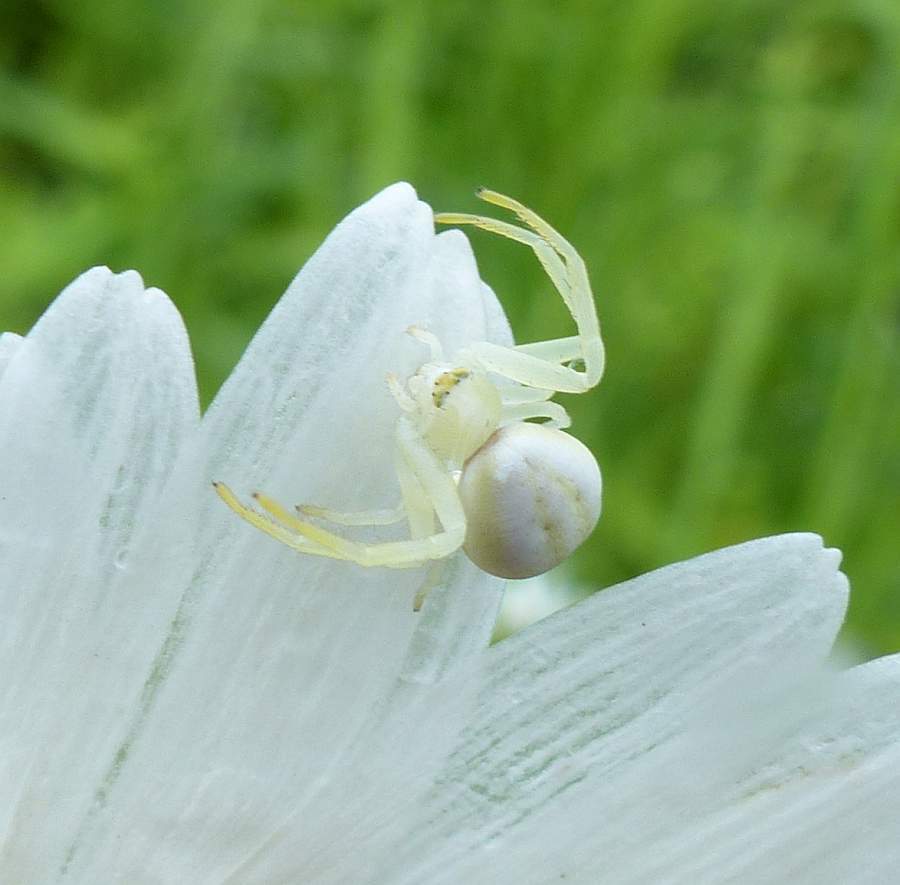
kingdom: Animalia
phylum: Arthropoda
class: Arachnida
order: Araneae
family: Thomisidae
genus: Misumena
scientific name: Misumena vatia
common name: Goldenrod crab spider
